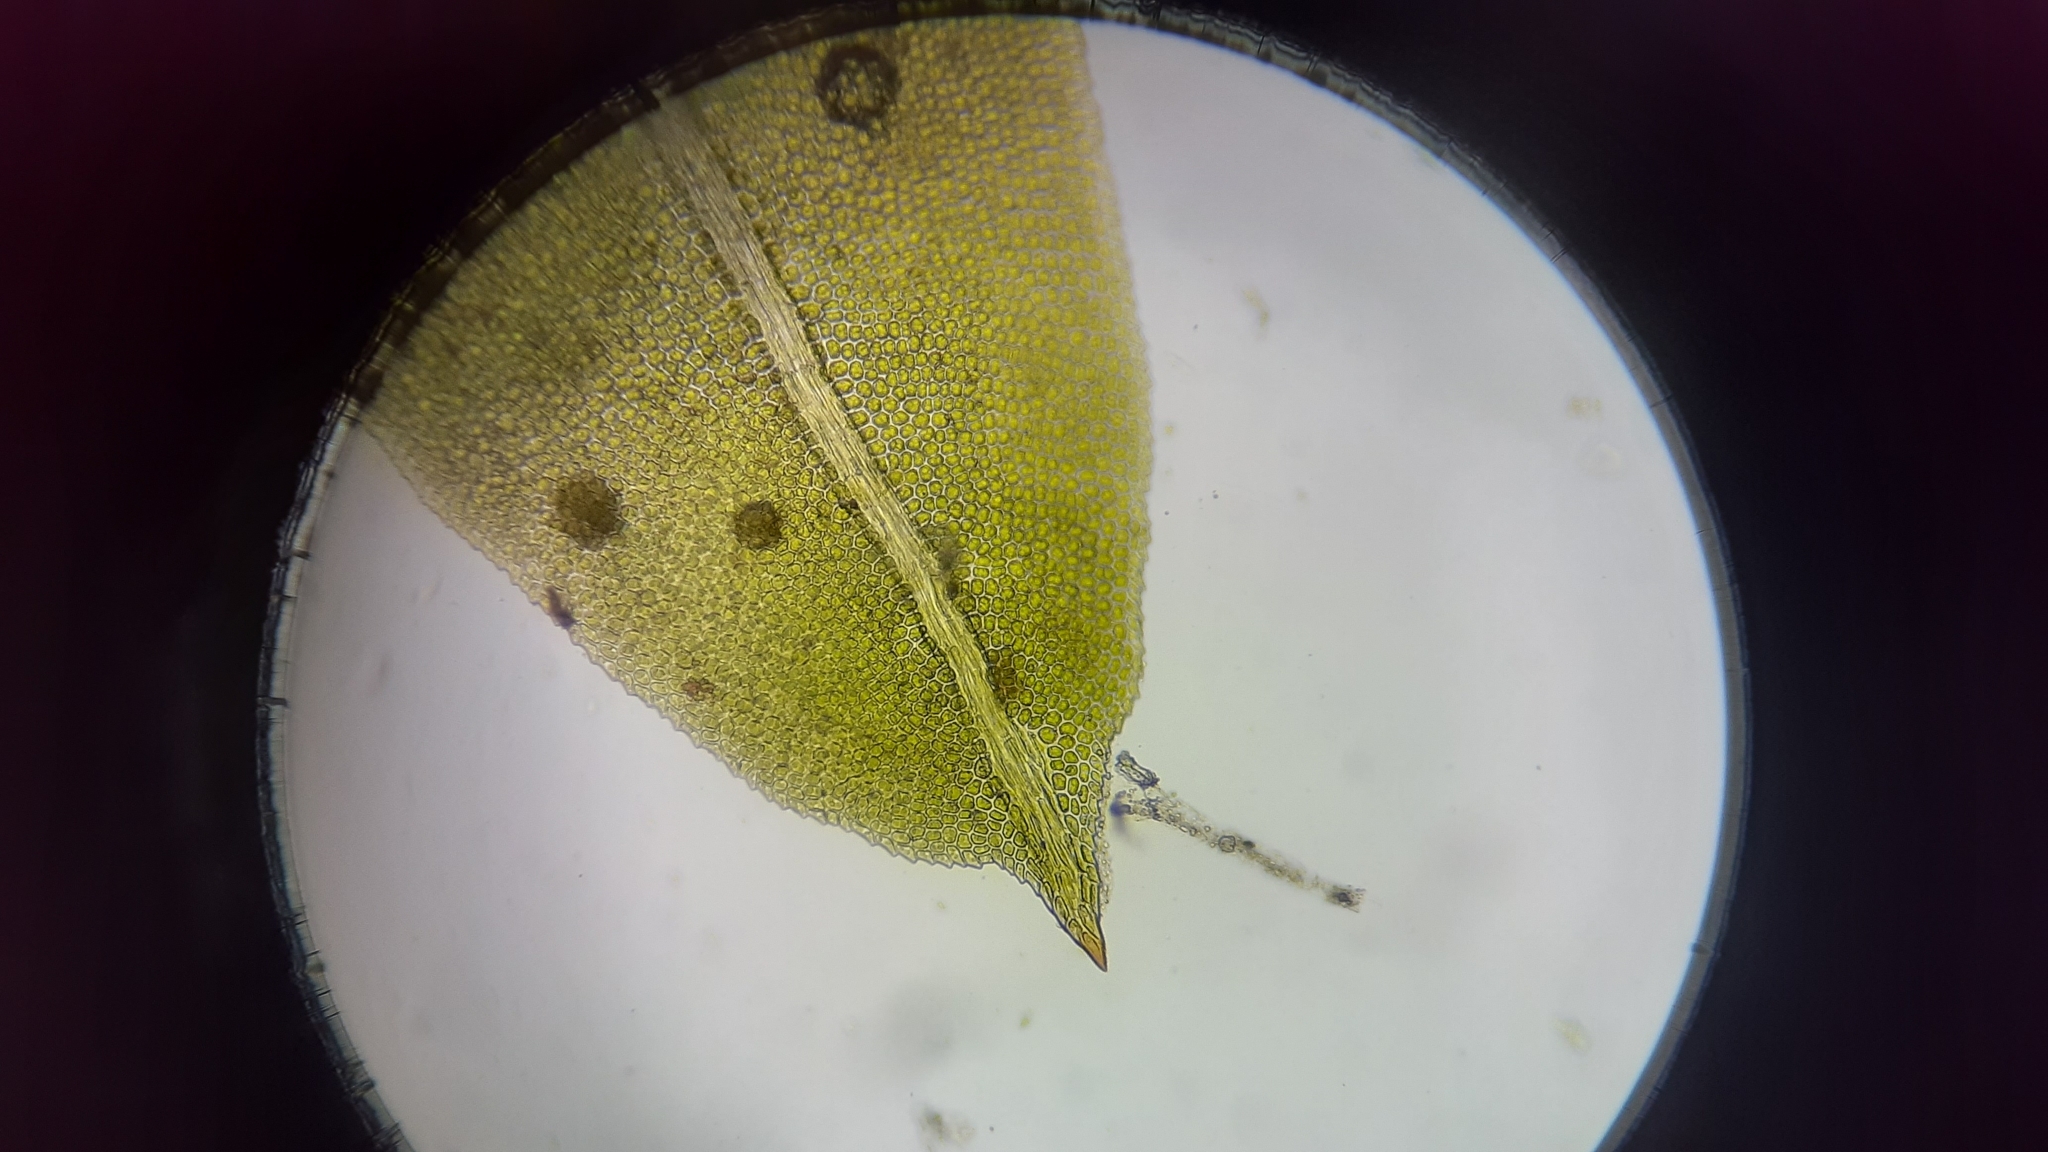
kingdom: Plantae
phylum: Bryophyta
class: Bryopsida
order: Dicranales
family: Fissidentaceae
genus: Fissidens
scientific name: Fissidens taxifolius
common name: Yew-leaved pocket moss
